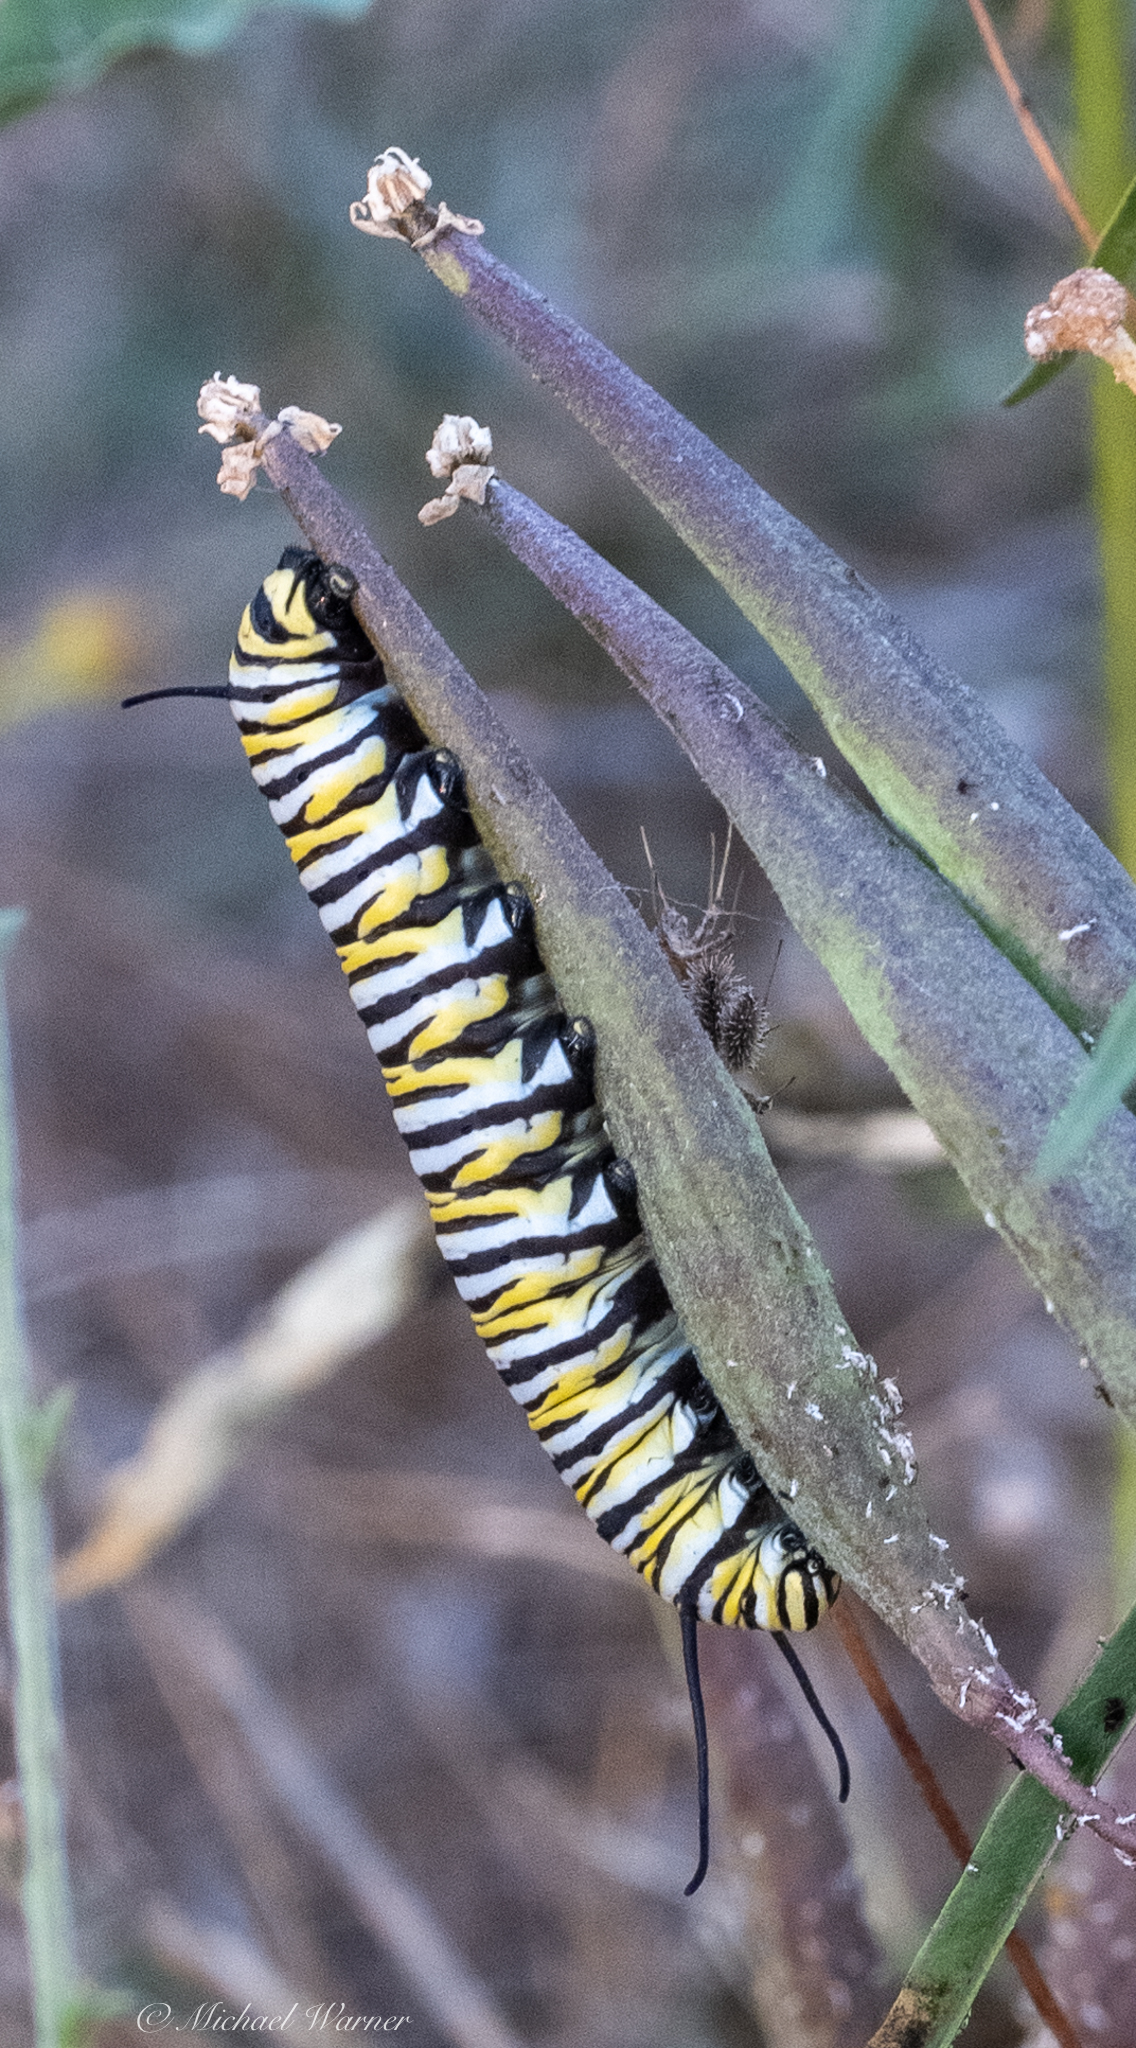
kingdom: Animalia
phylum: Arthropoda
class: Insecta
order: Lepidoptera
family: Nymphalidae
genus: Danaus
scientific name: Danaus plexippus
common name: Monarch
